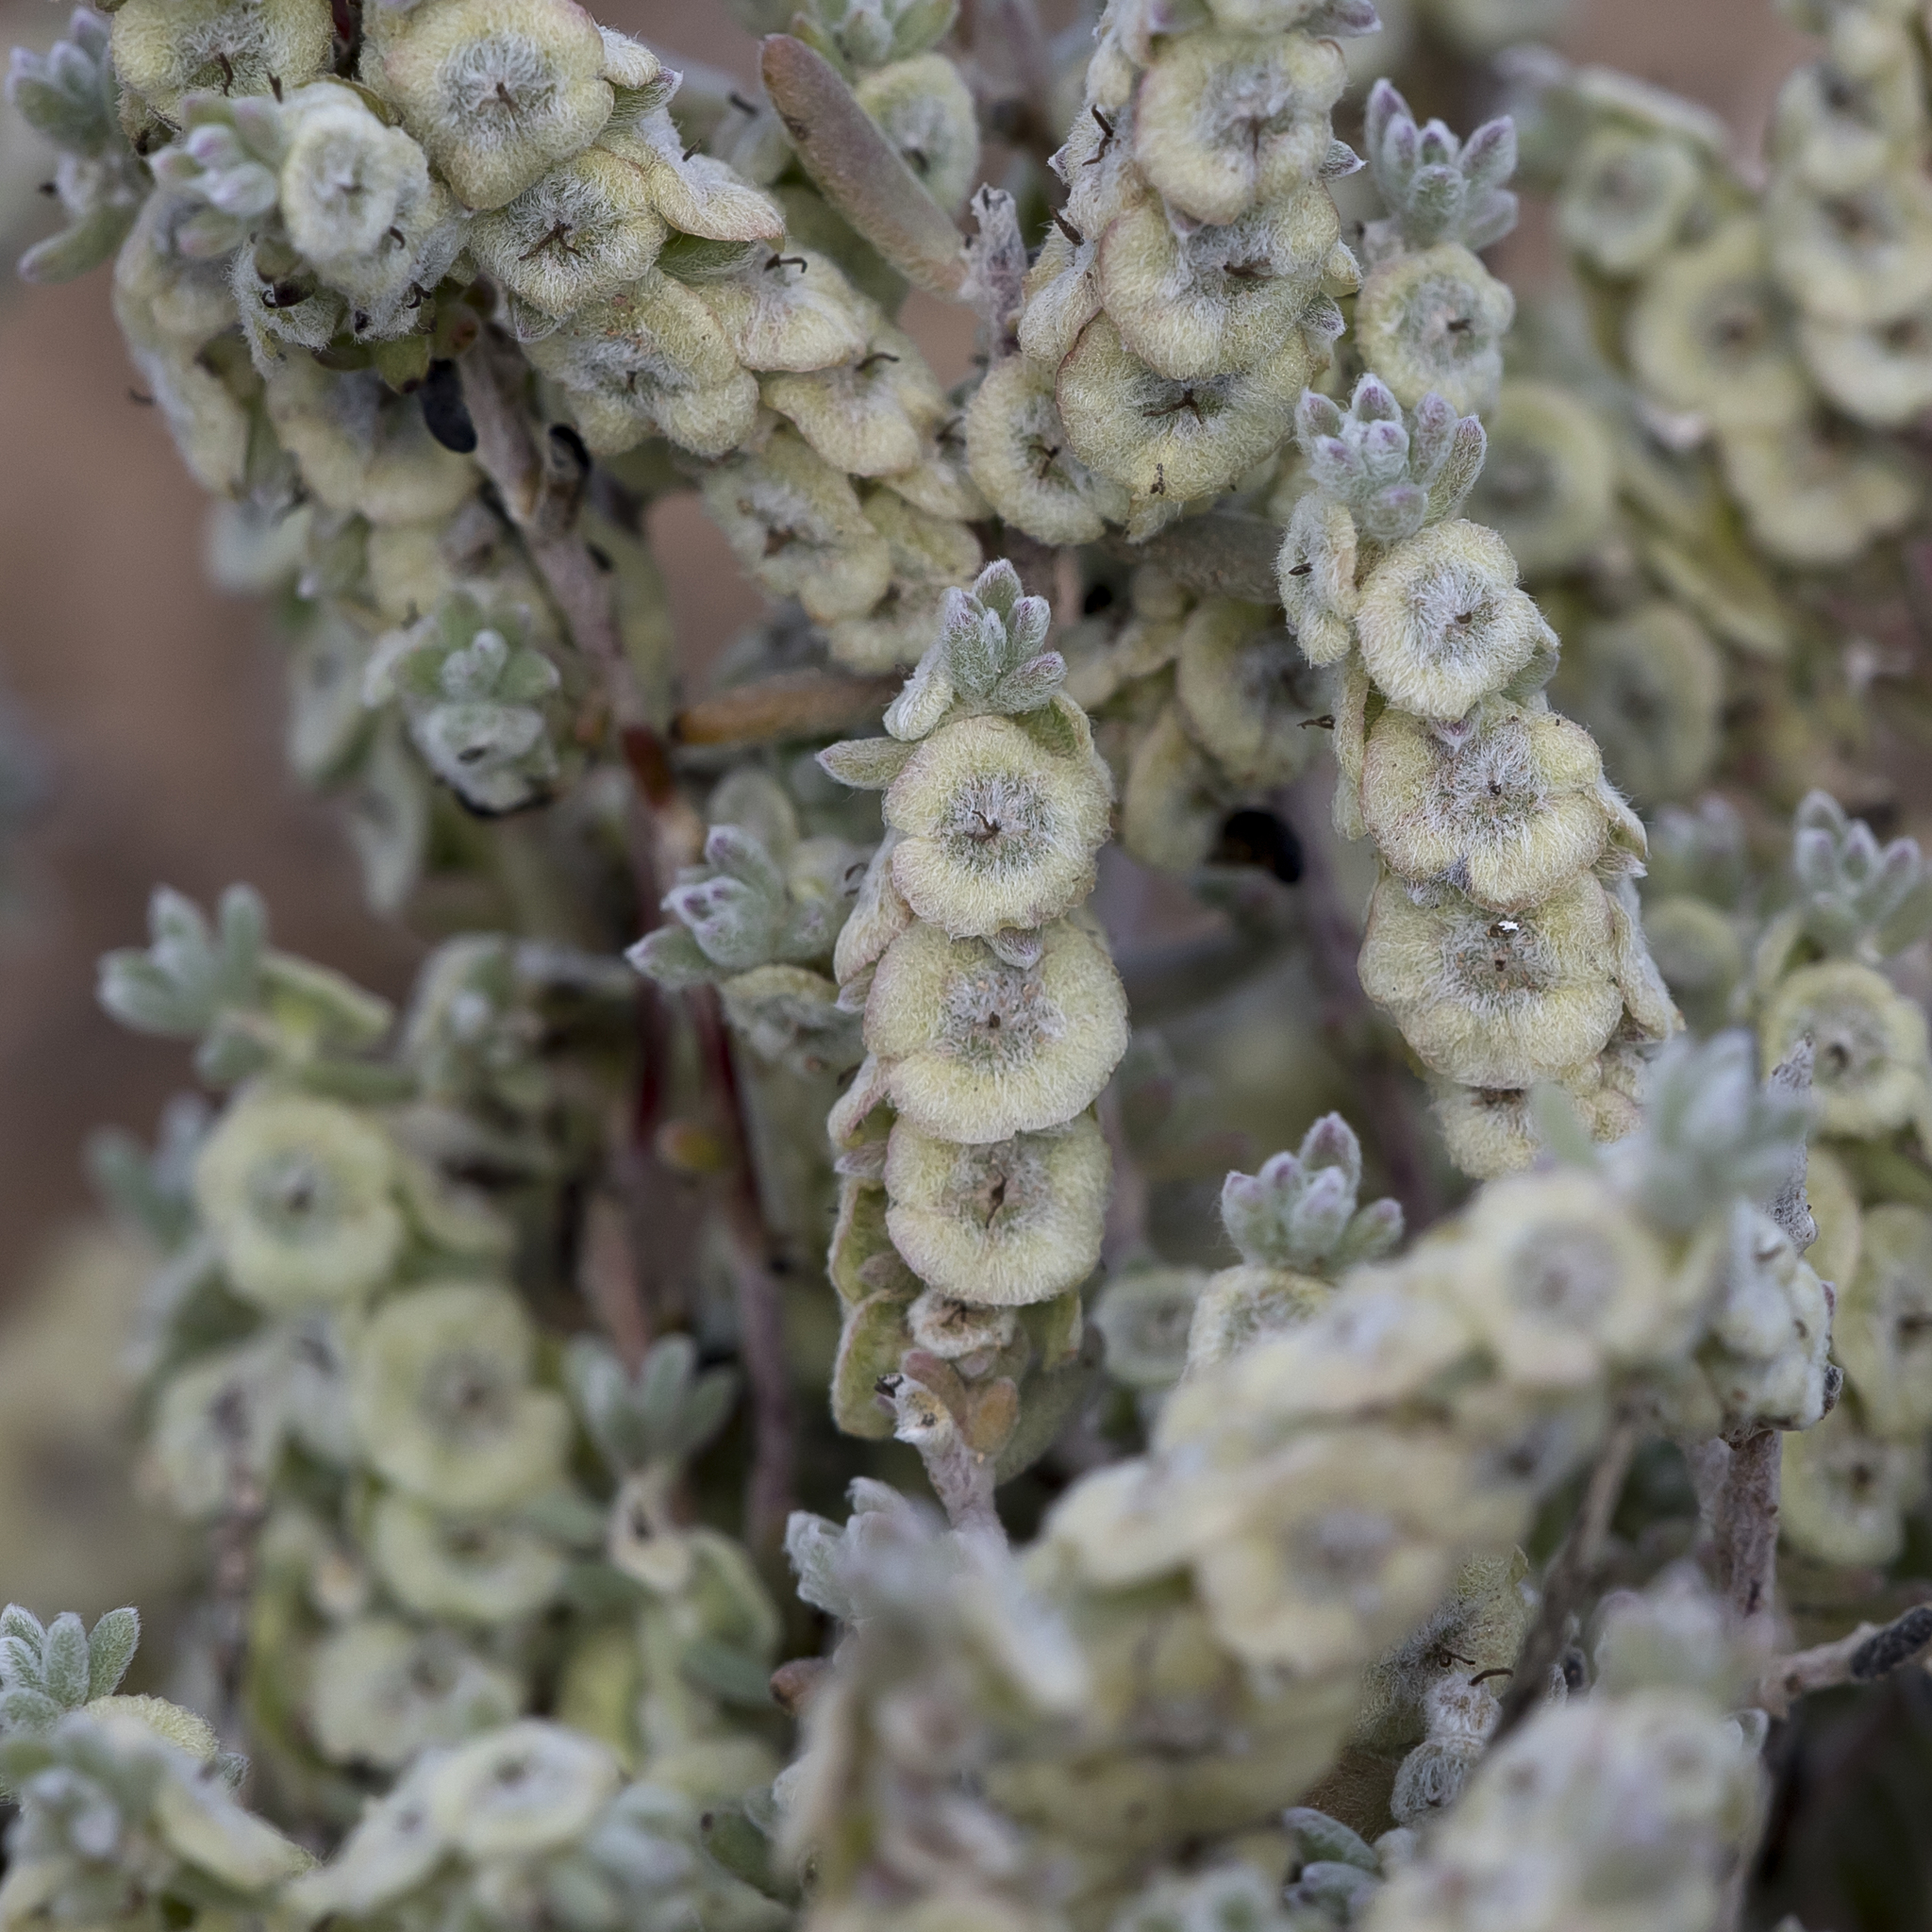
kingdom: Plantae
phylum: Tracheophyta
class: Magnoliopsida
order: Caryophyllales
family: Amaranthaceae
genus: Maireana
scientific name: Maireana trichoptera
